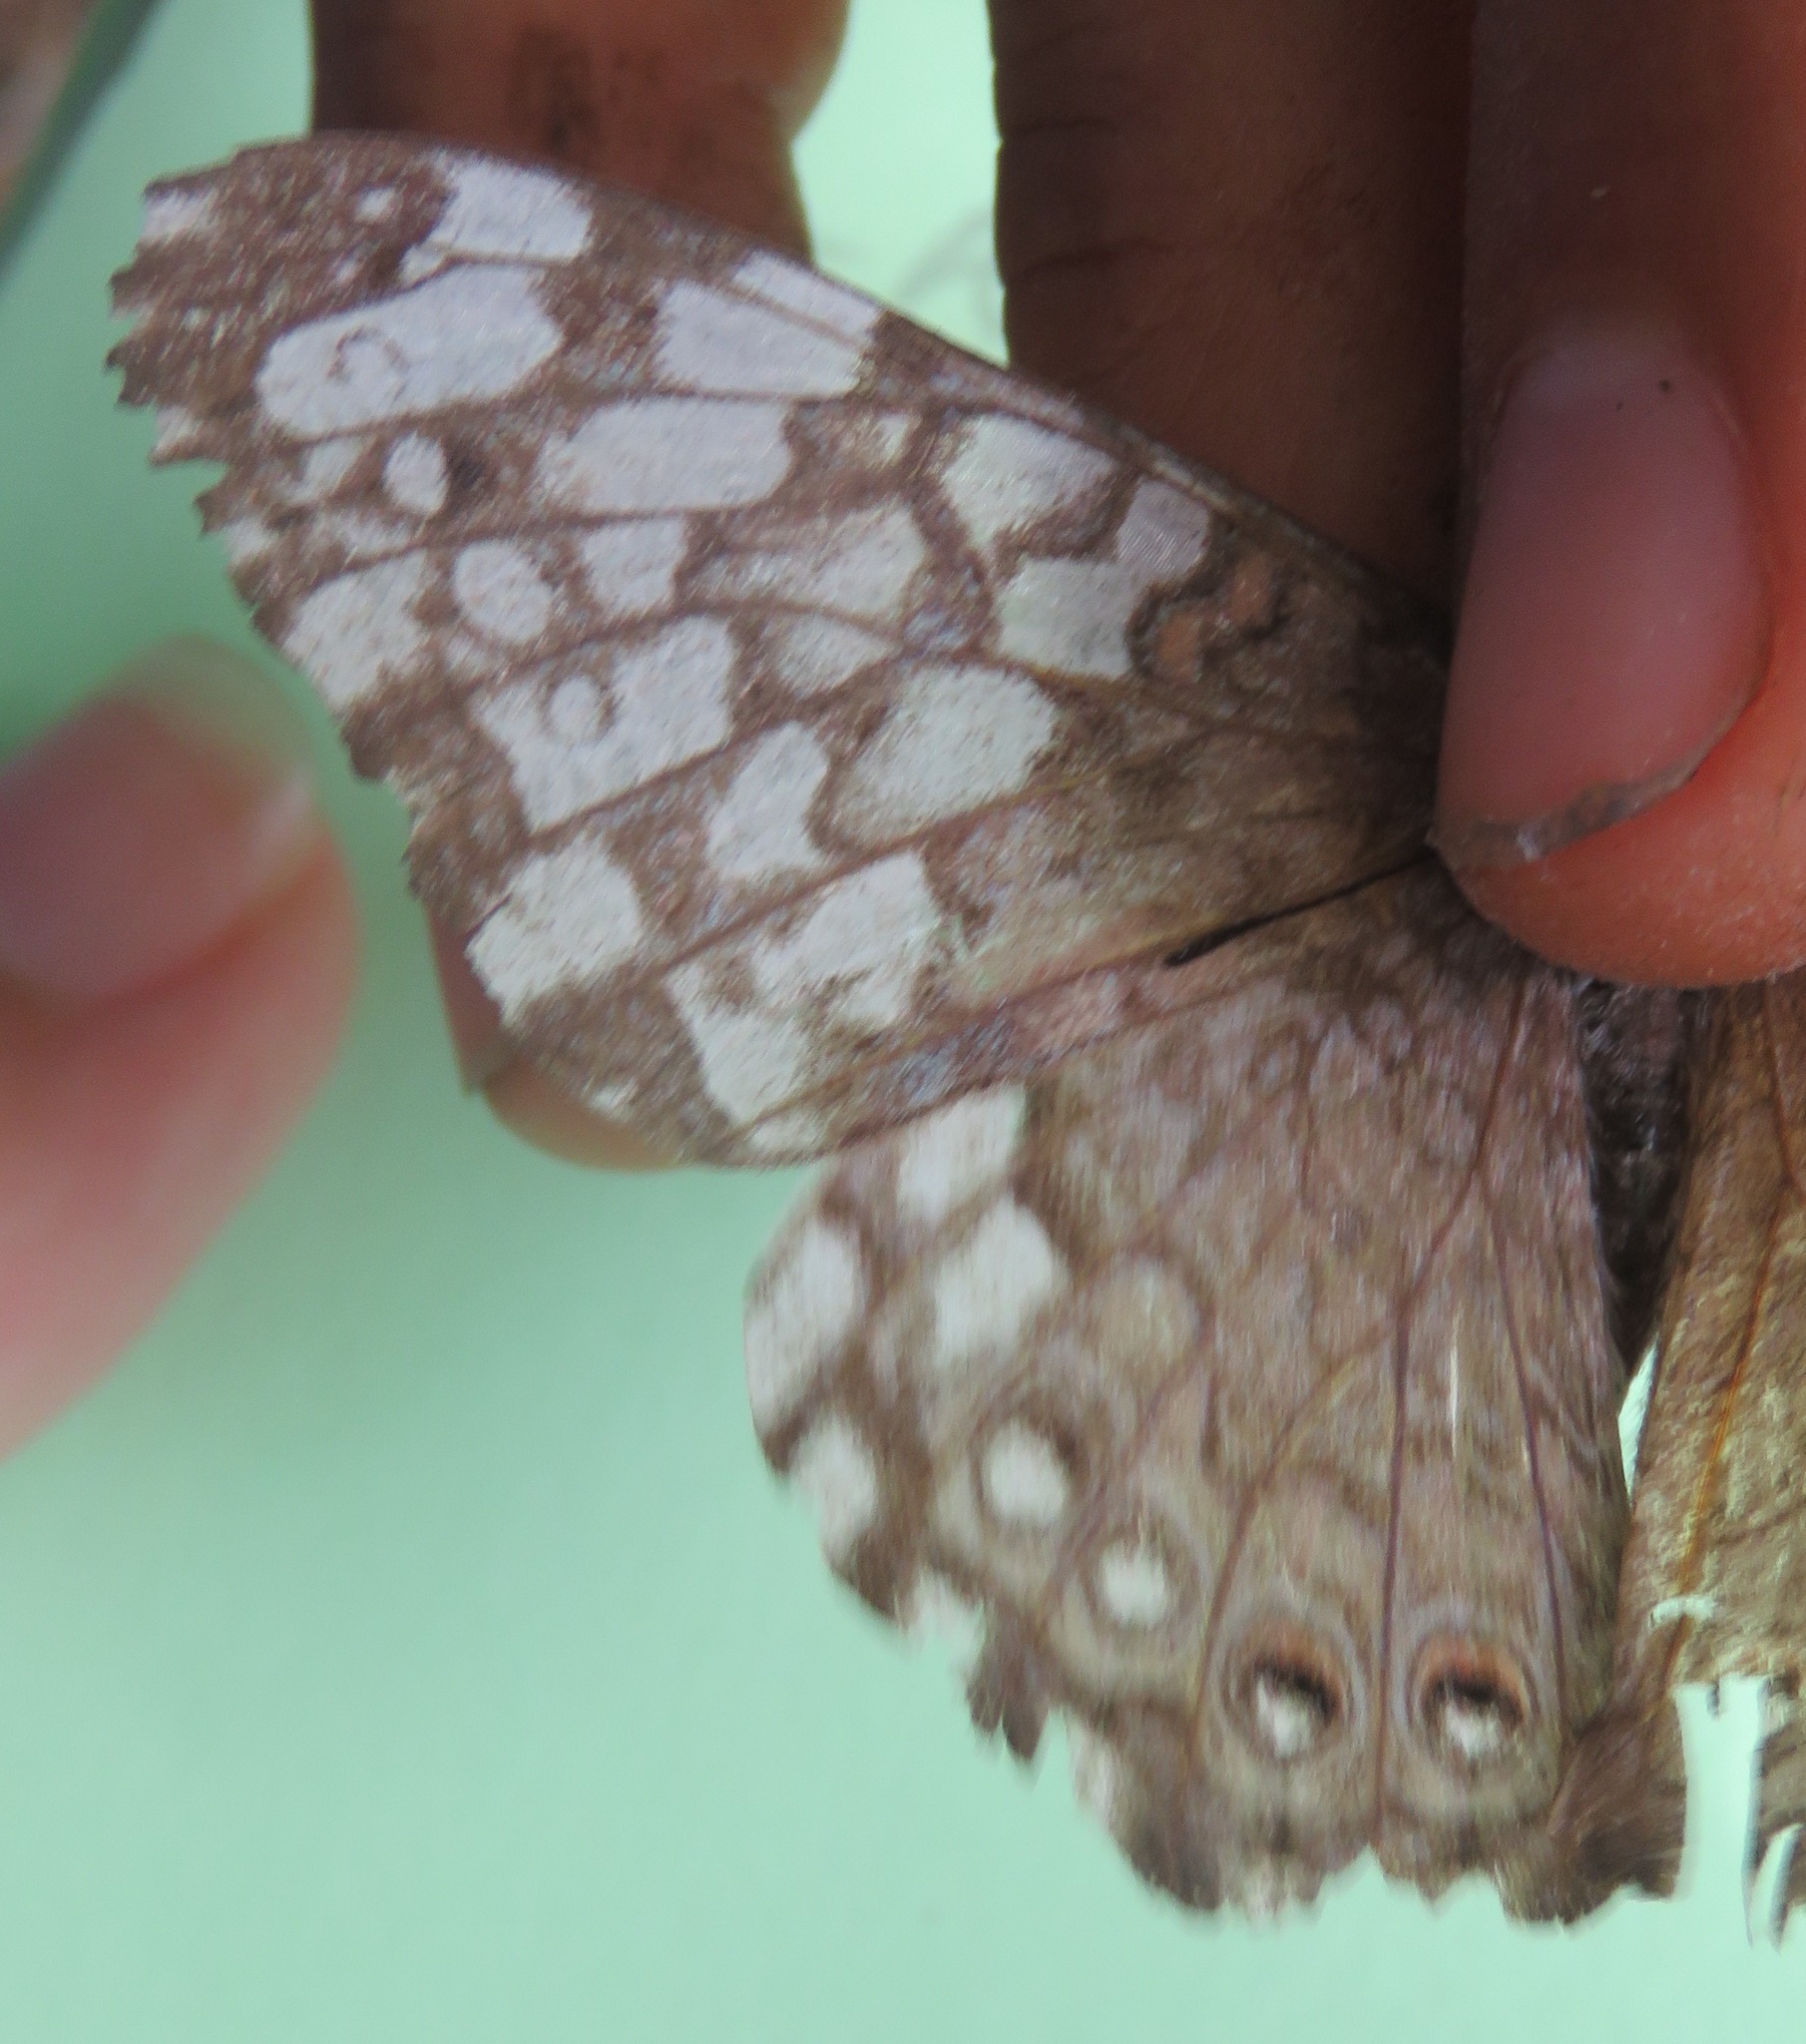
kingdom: Animalia
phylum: Arthropoda
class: Insecta
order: Lepidoptera
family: Nymphalidae
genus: Hamadryas
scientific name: Hamadryas februa
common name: Gray cracker
